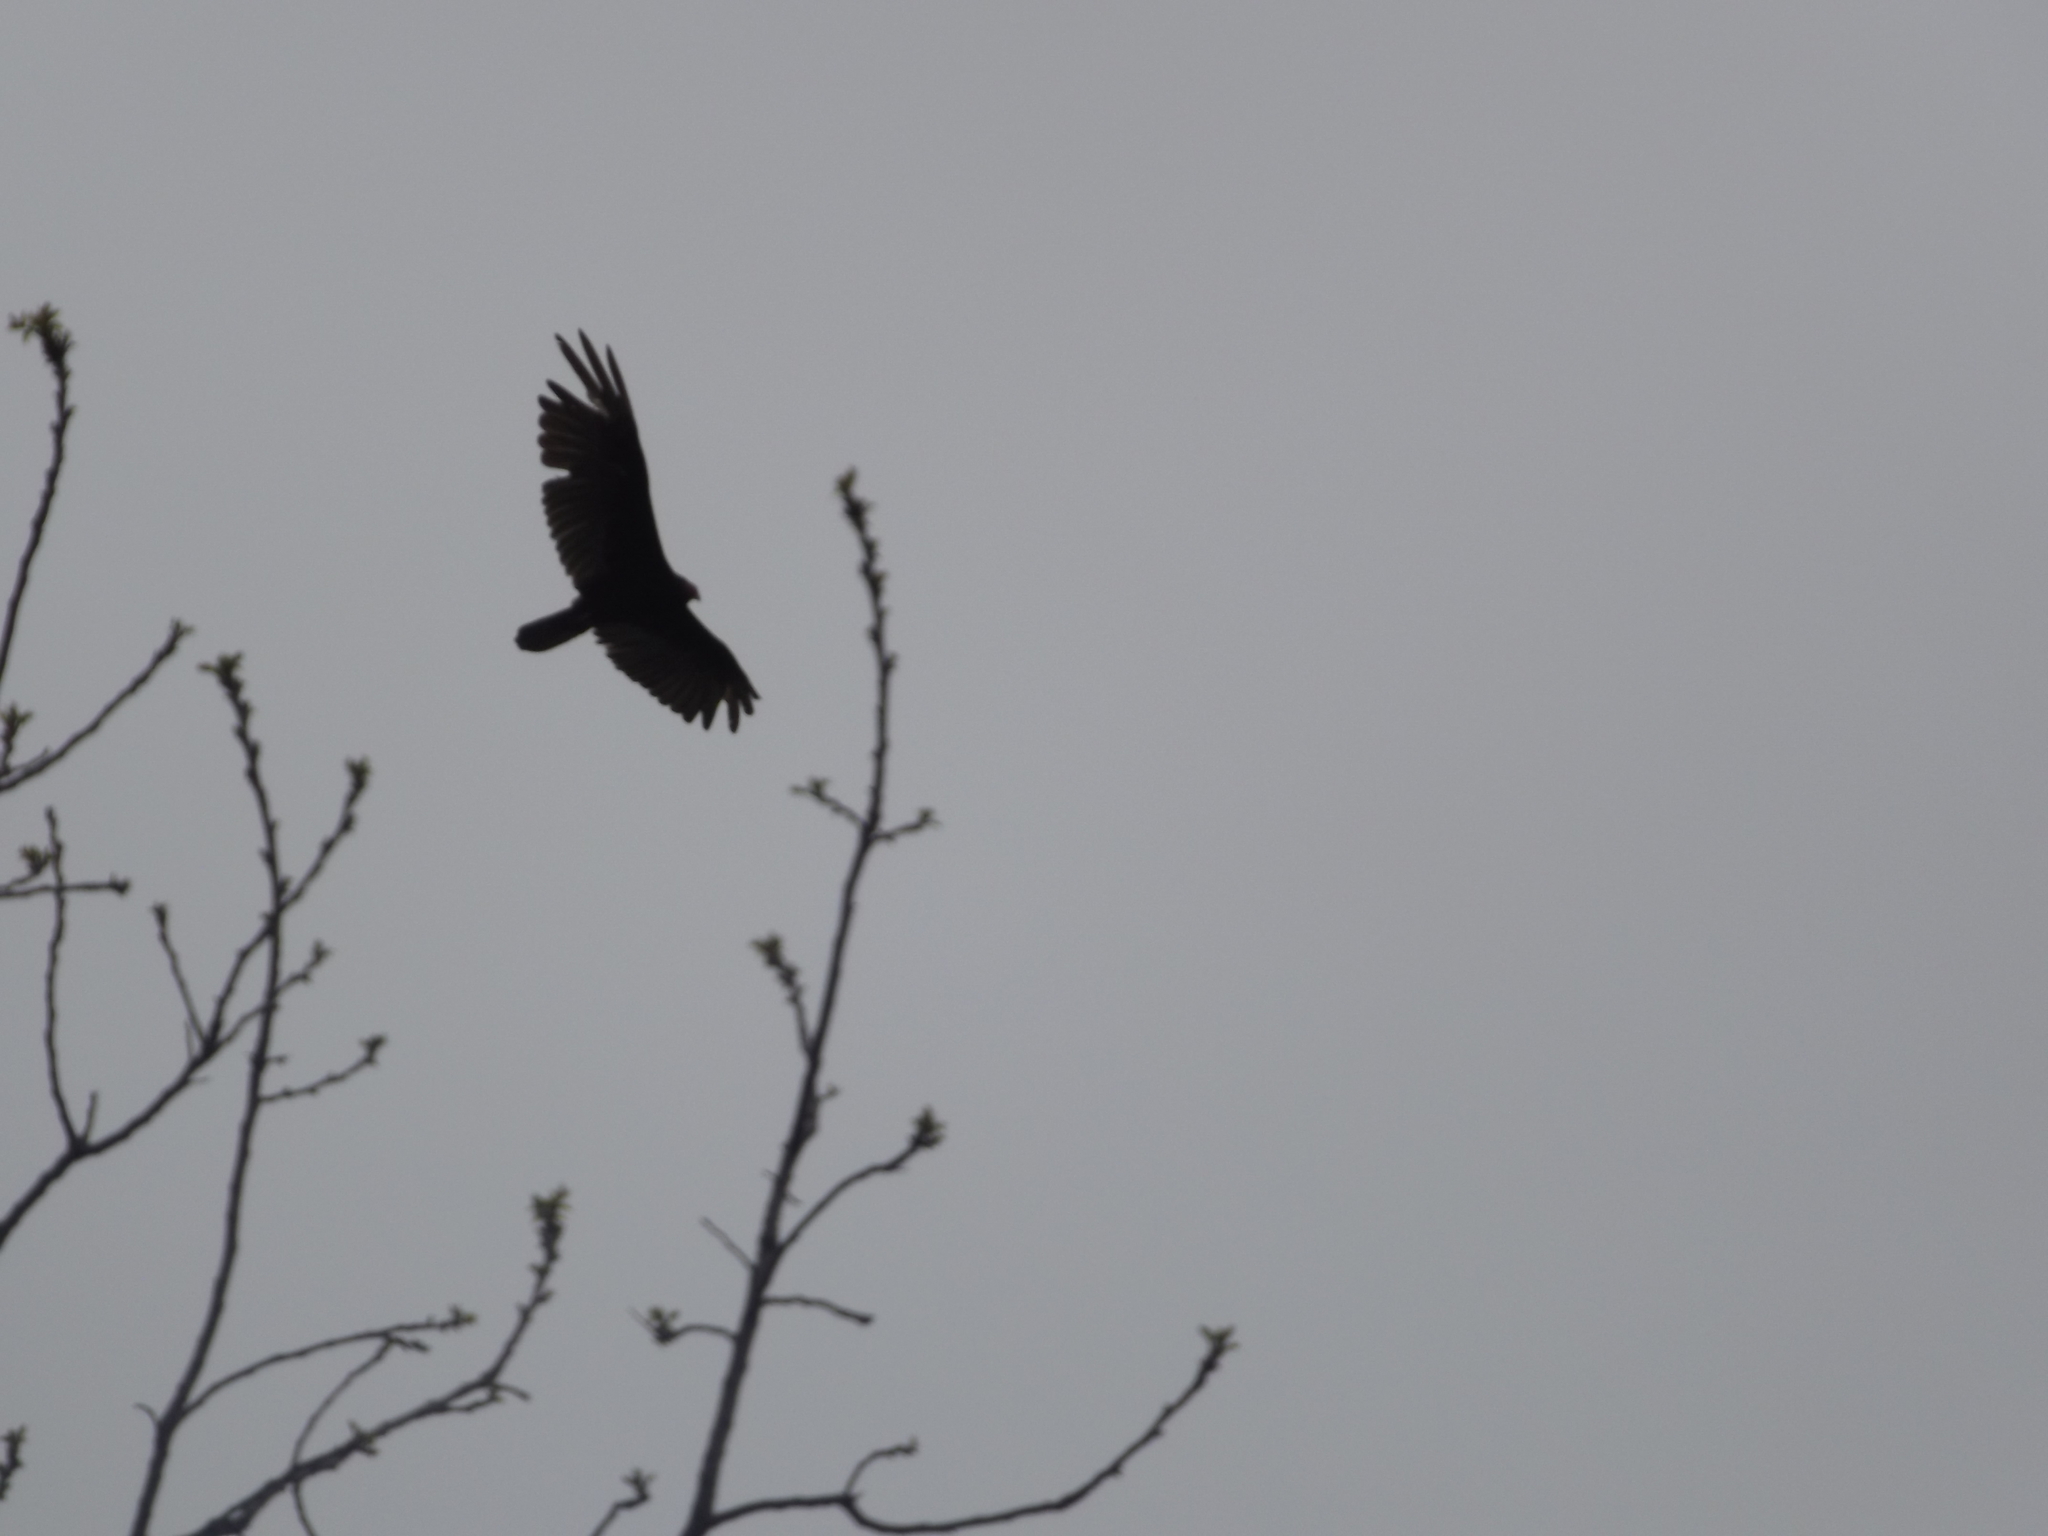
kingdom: Animalia
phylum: Chordata
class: Aves
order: Accipitriformes
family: Cathartidae
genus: Cathartes
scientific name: Cathartes aura
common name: Turkey vulture
